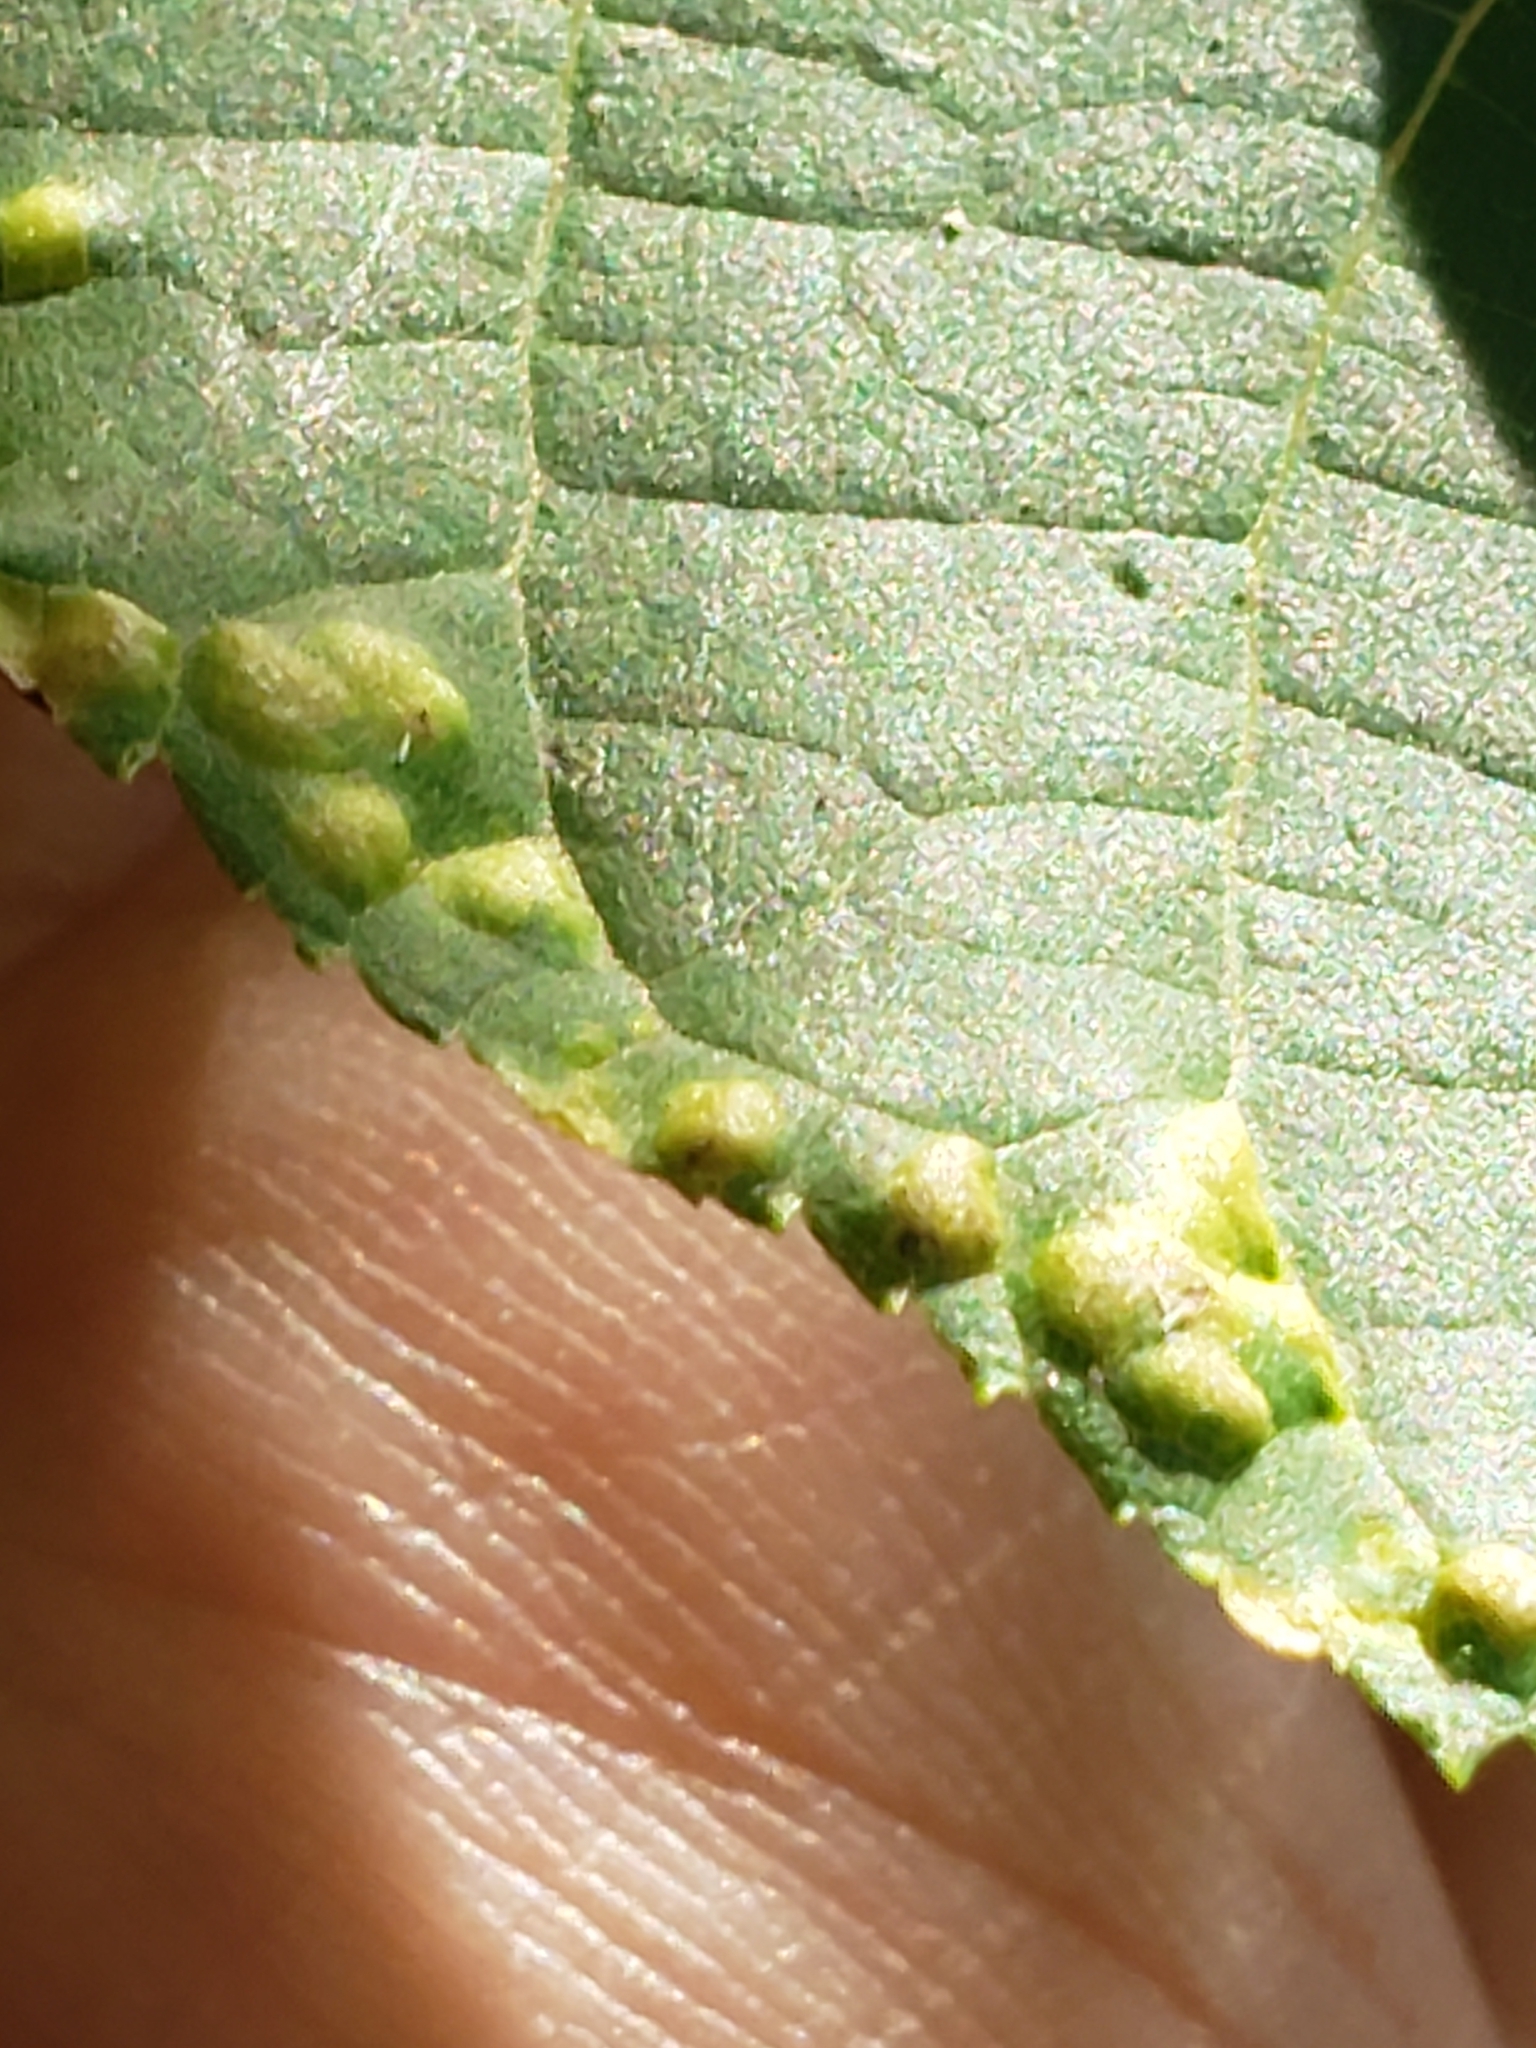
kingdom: Fungi
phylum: Basidiomycota
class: Exobasidiomycetes
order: Microstromatales
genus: Pseudomicrostroma
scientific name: Pseudomicrostroma juglandis
